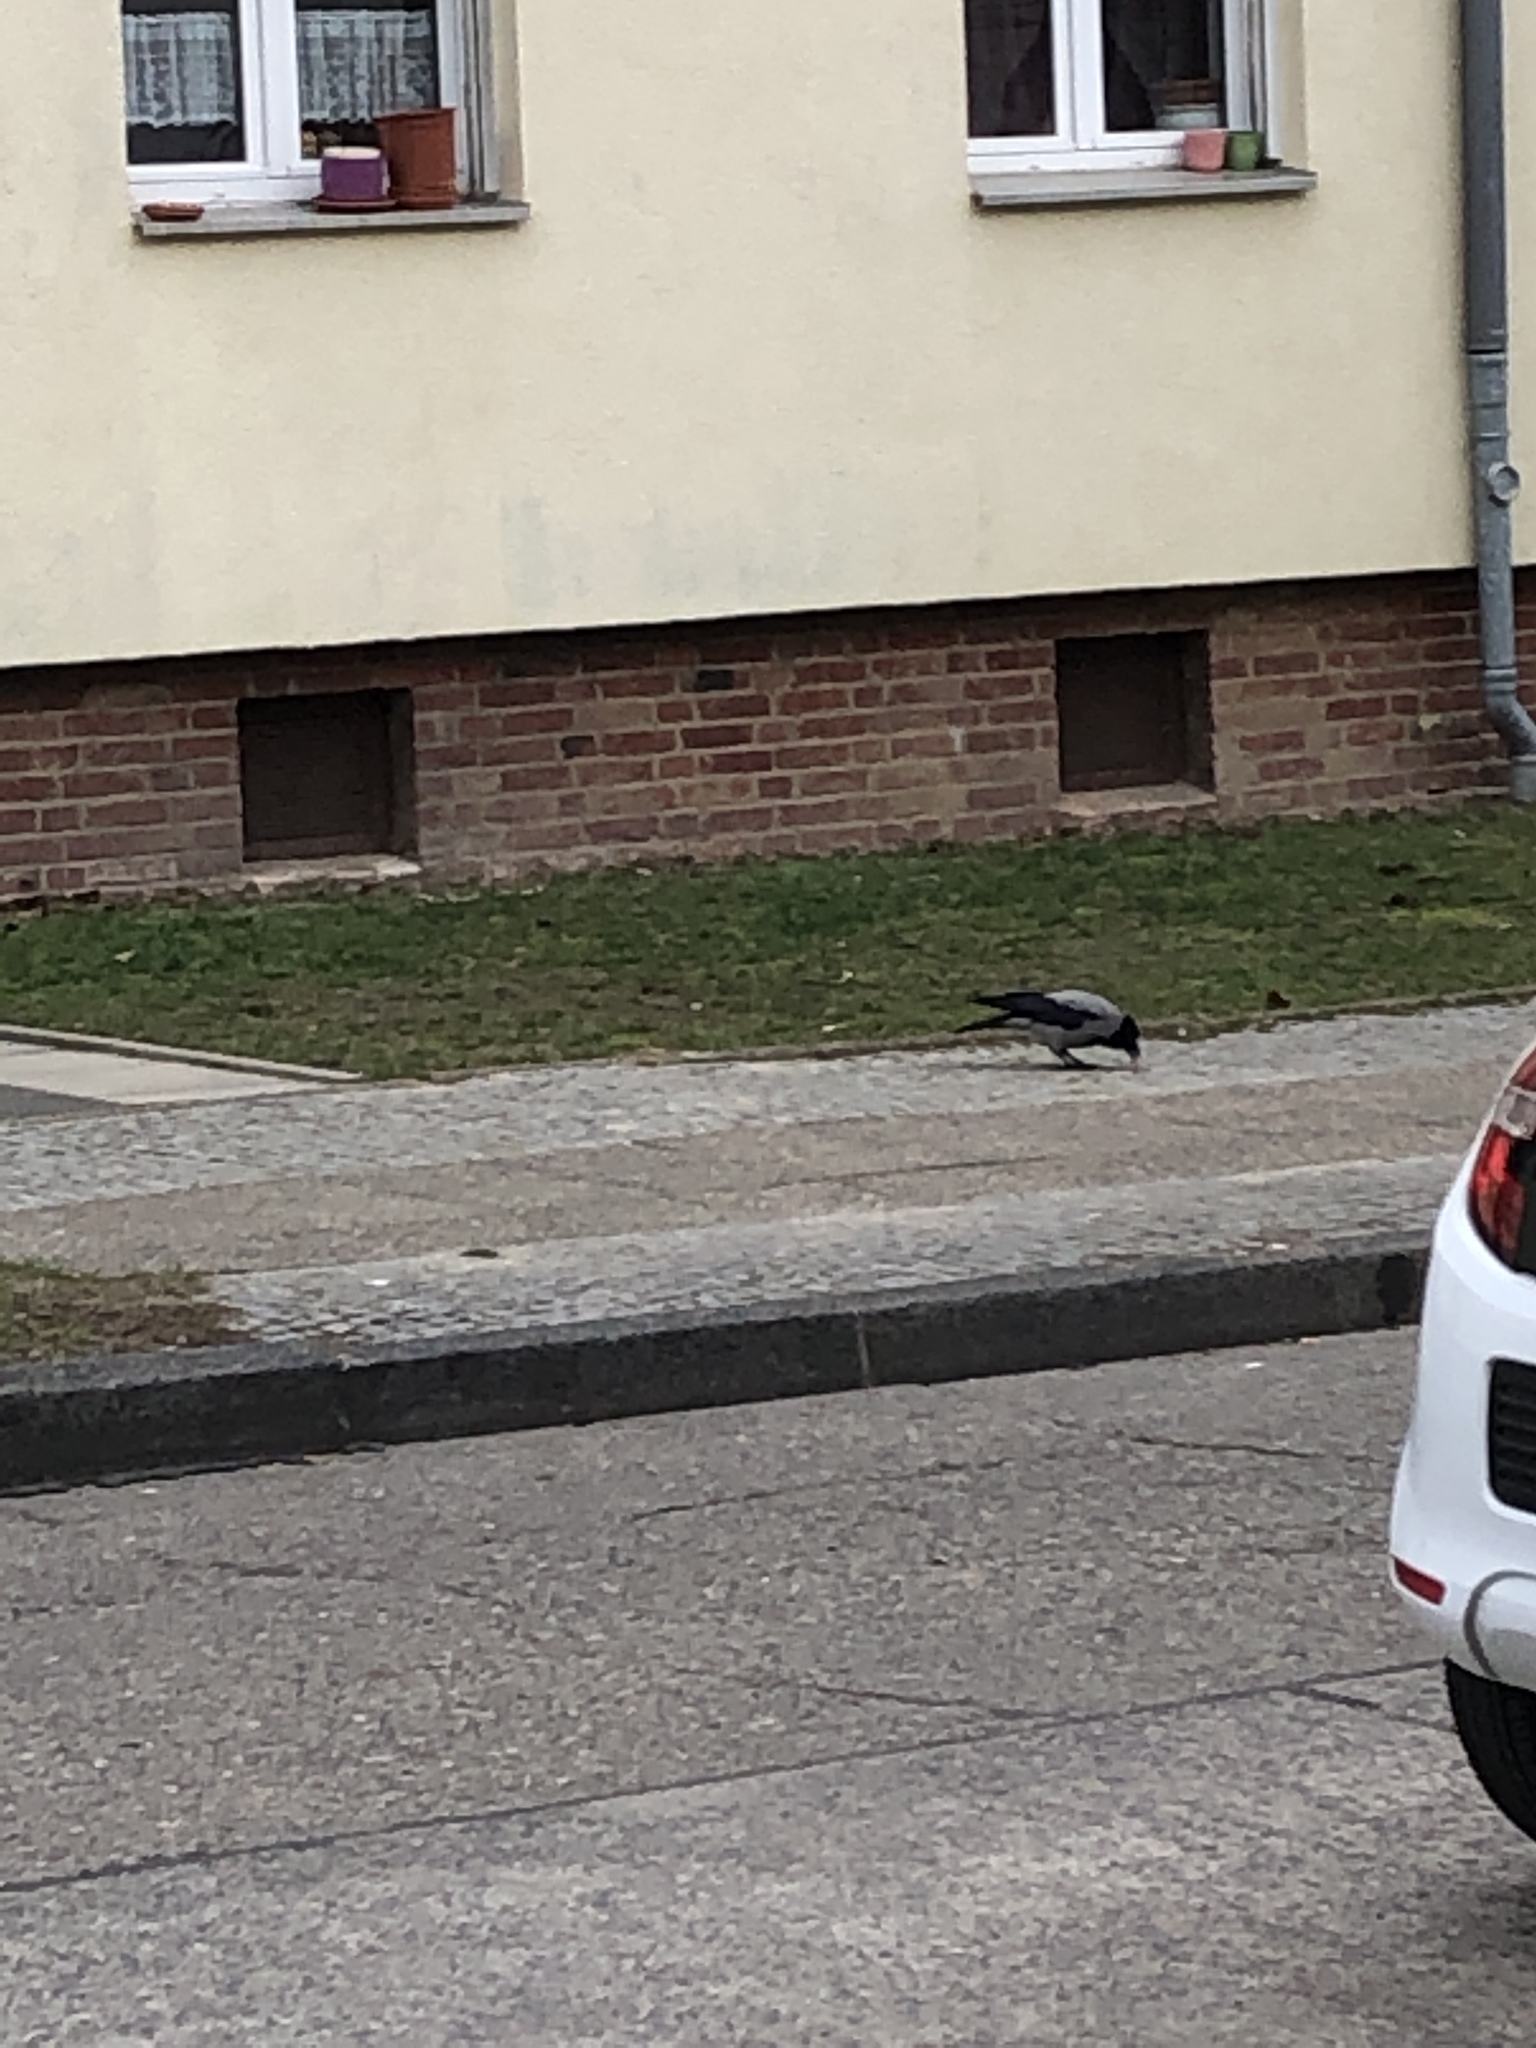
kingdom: Animalia
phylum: Chordata
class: Aves
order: Passeriformes
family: Corvidae
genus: Corvus
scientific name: Corvus cornix
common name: Hooded crow
